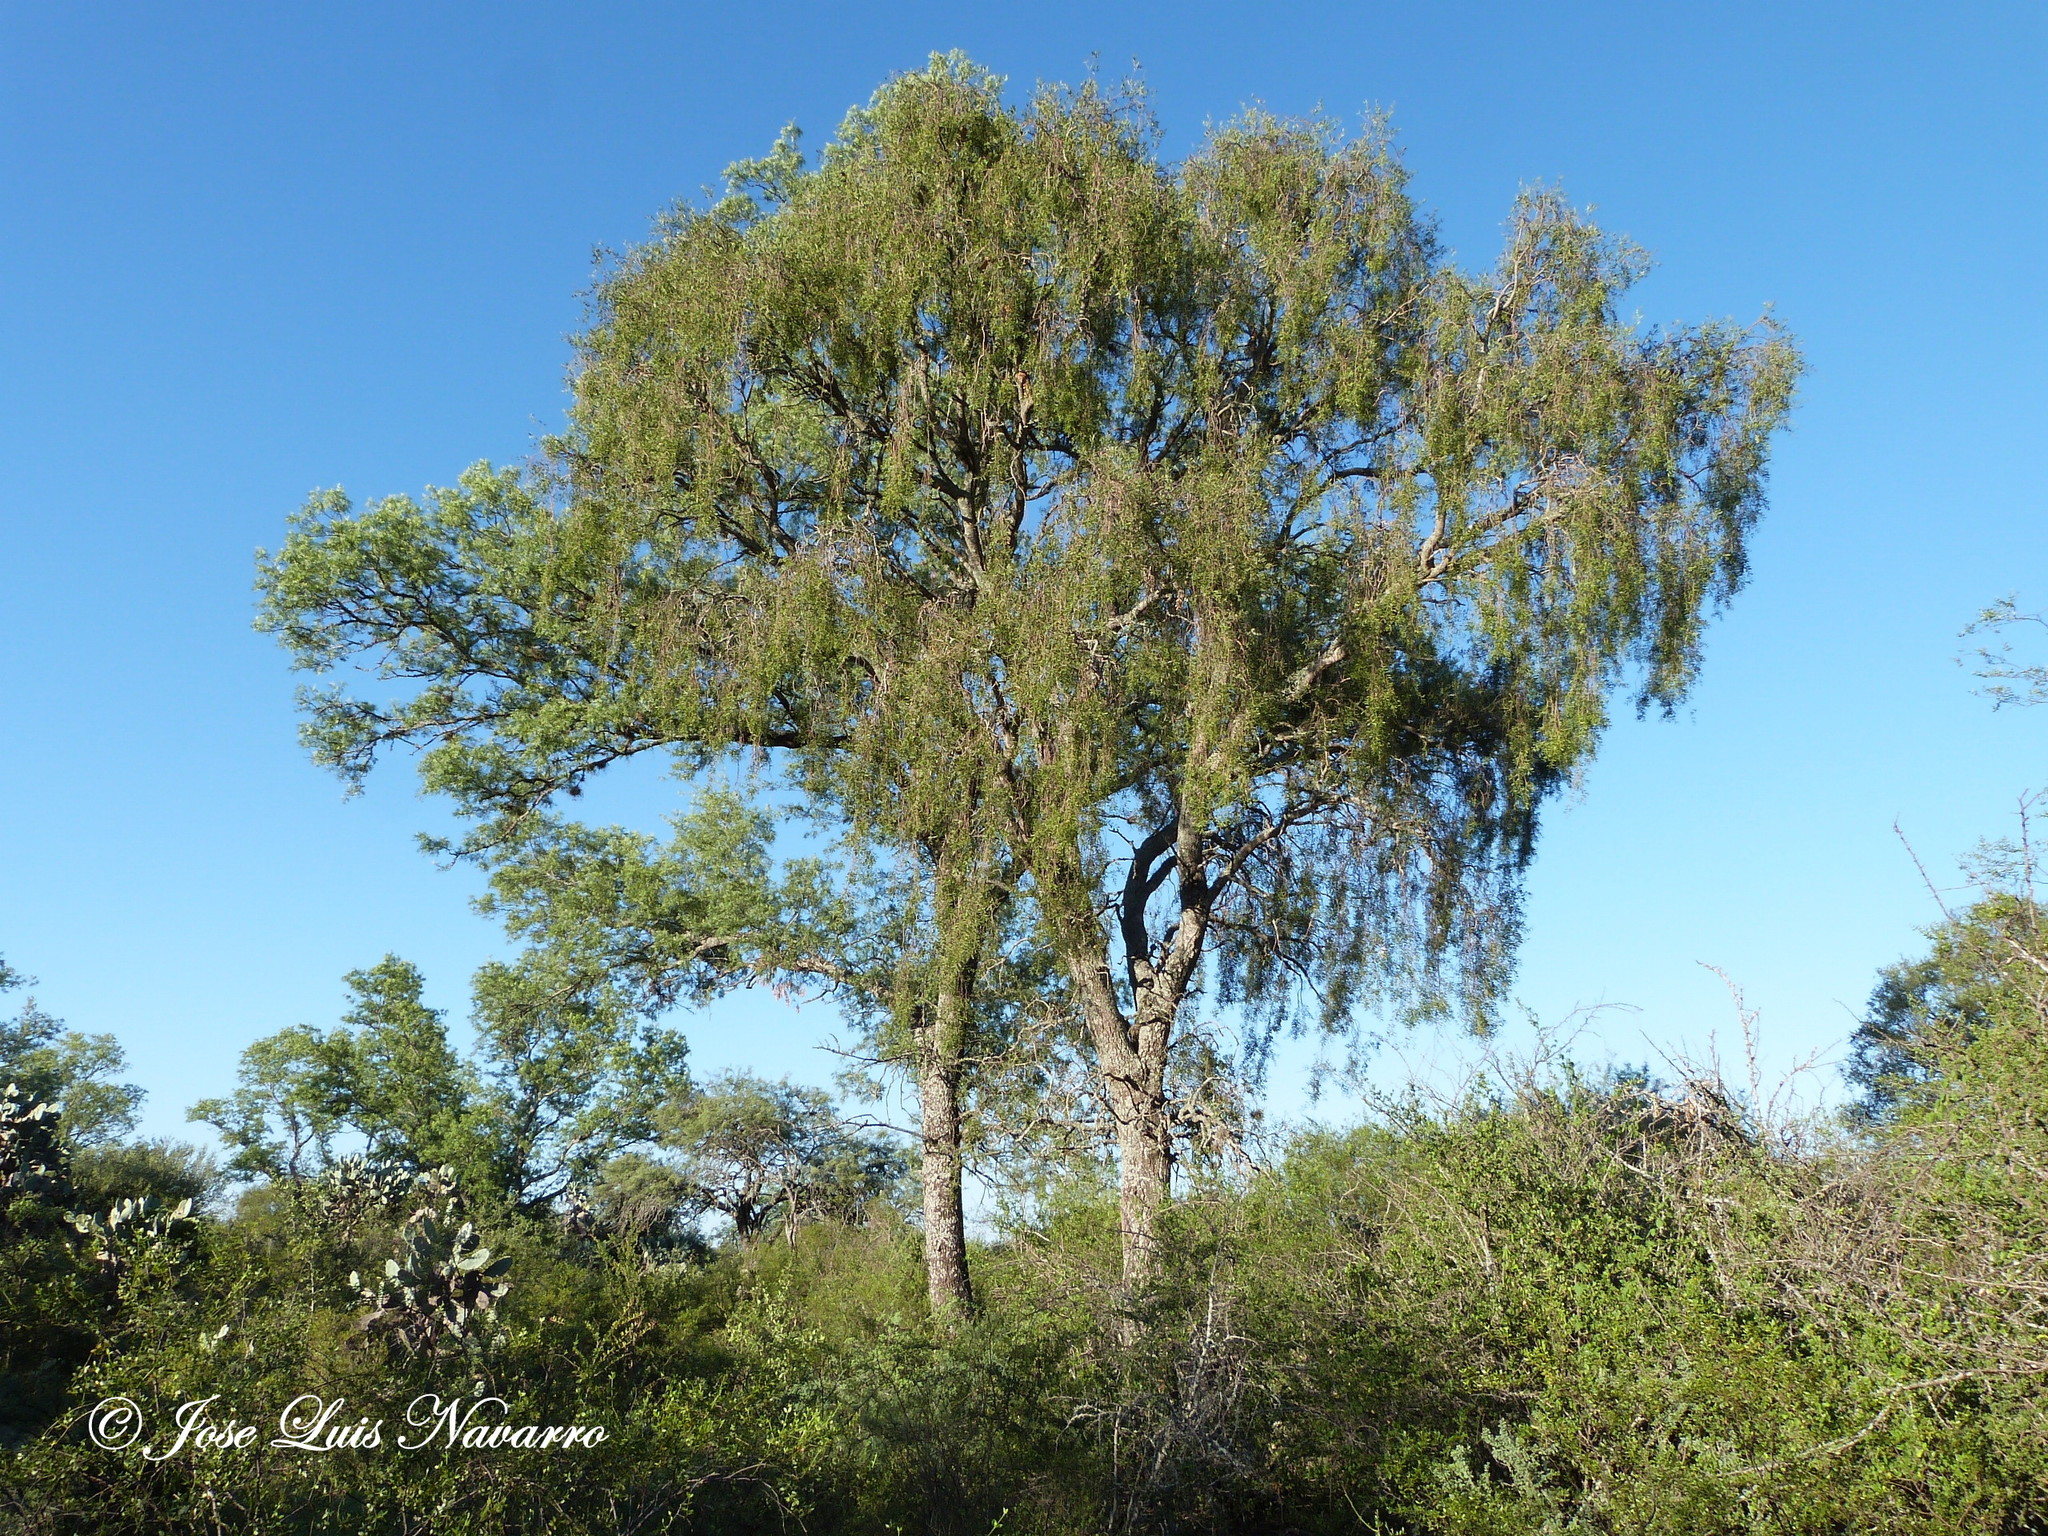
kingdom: Plantae
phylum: Tracheophyta
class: Magnoliopsida
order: Gentianales
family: Apocynaceae
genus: Aspidosperma
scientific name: Aspidosperma quebracho-blanco
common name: White quebracho
